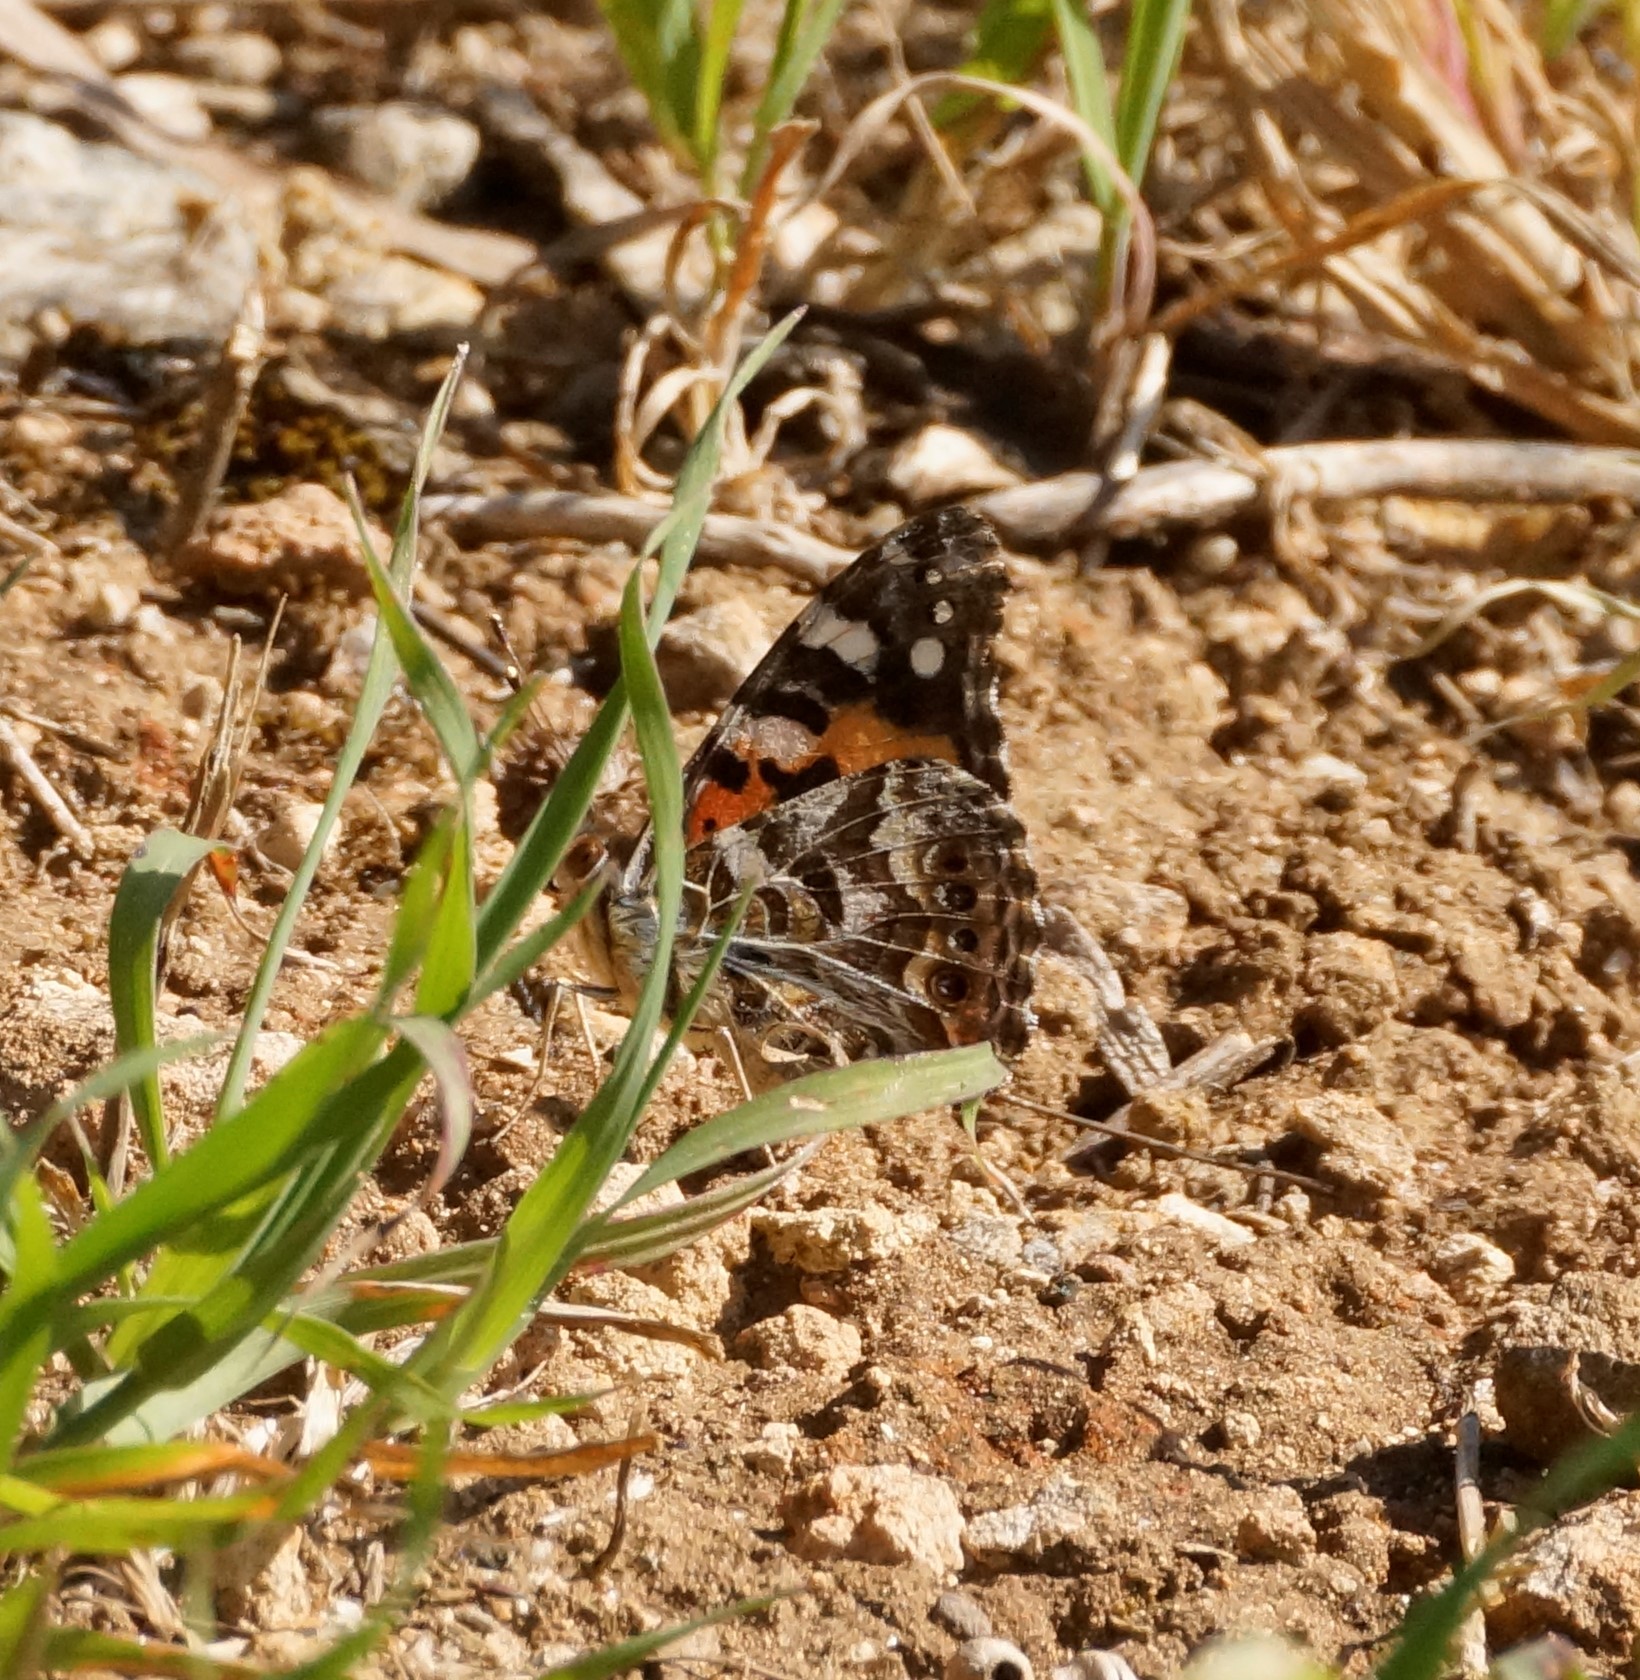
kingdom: Animalia
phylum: Arthropoda
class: Insecta
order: Lepidoptera
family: Nymphalidae
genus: Vanessa
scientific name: Vanessa kershawi
